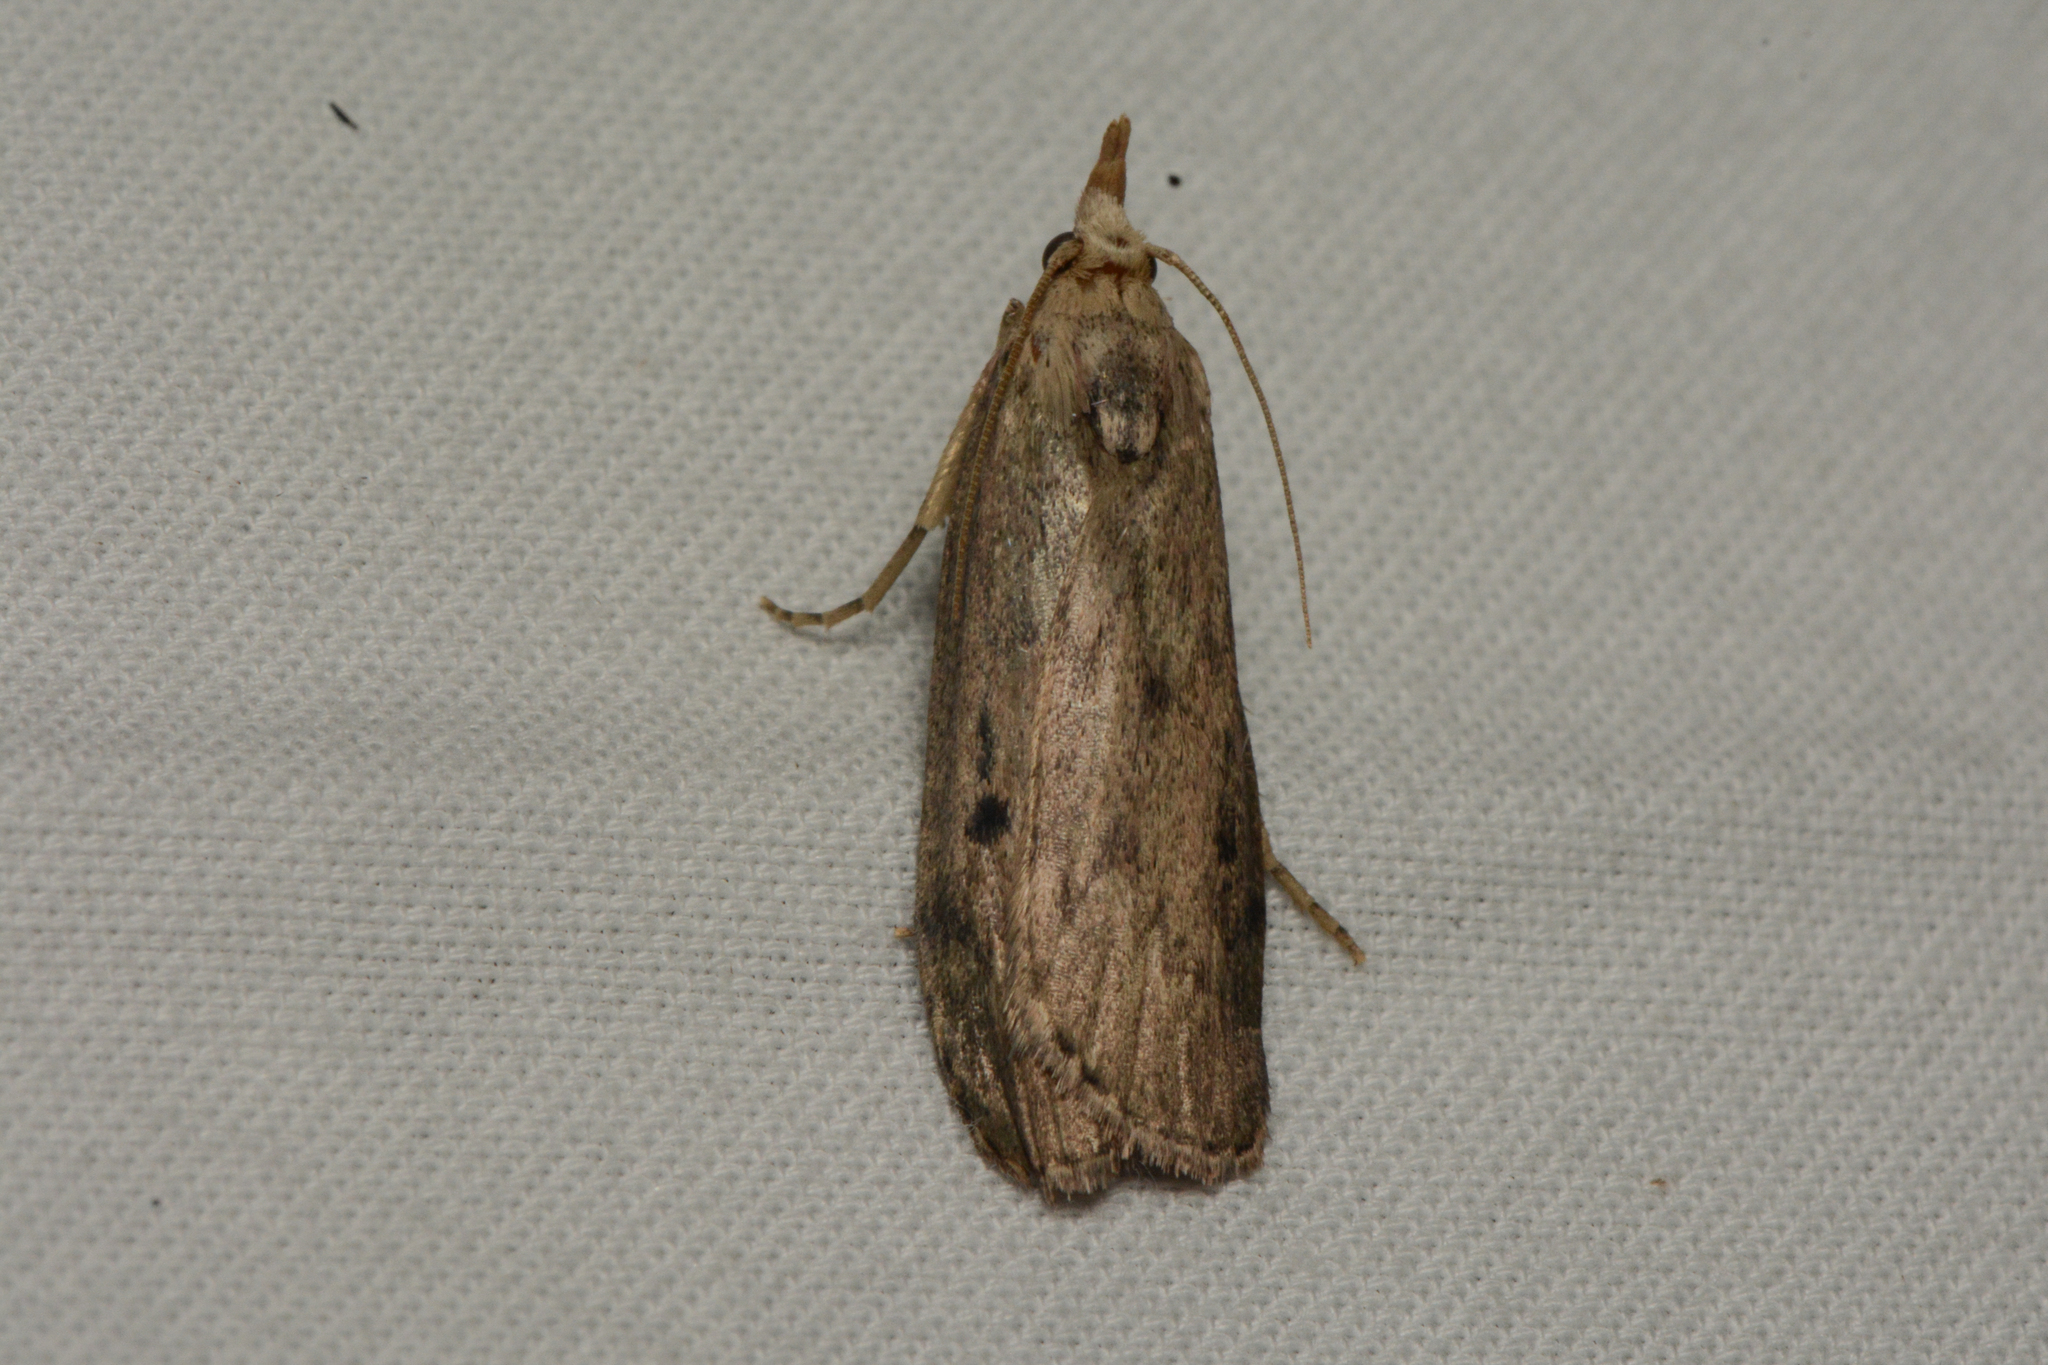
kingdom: Animalia
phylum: Arthropoda
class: Insecta
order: Lepidoptera
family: Pyralidae
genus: Aphomia
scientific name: Aphomia sociella
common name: Bee moth
